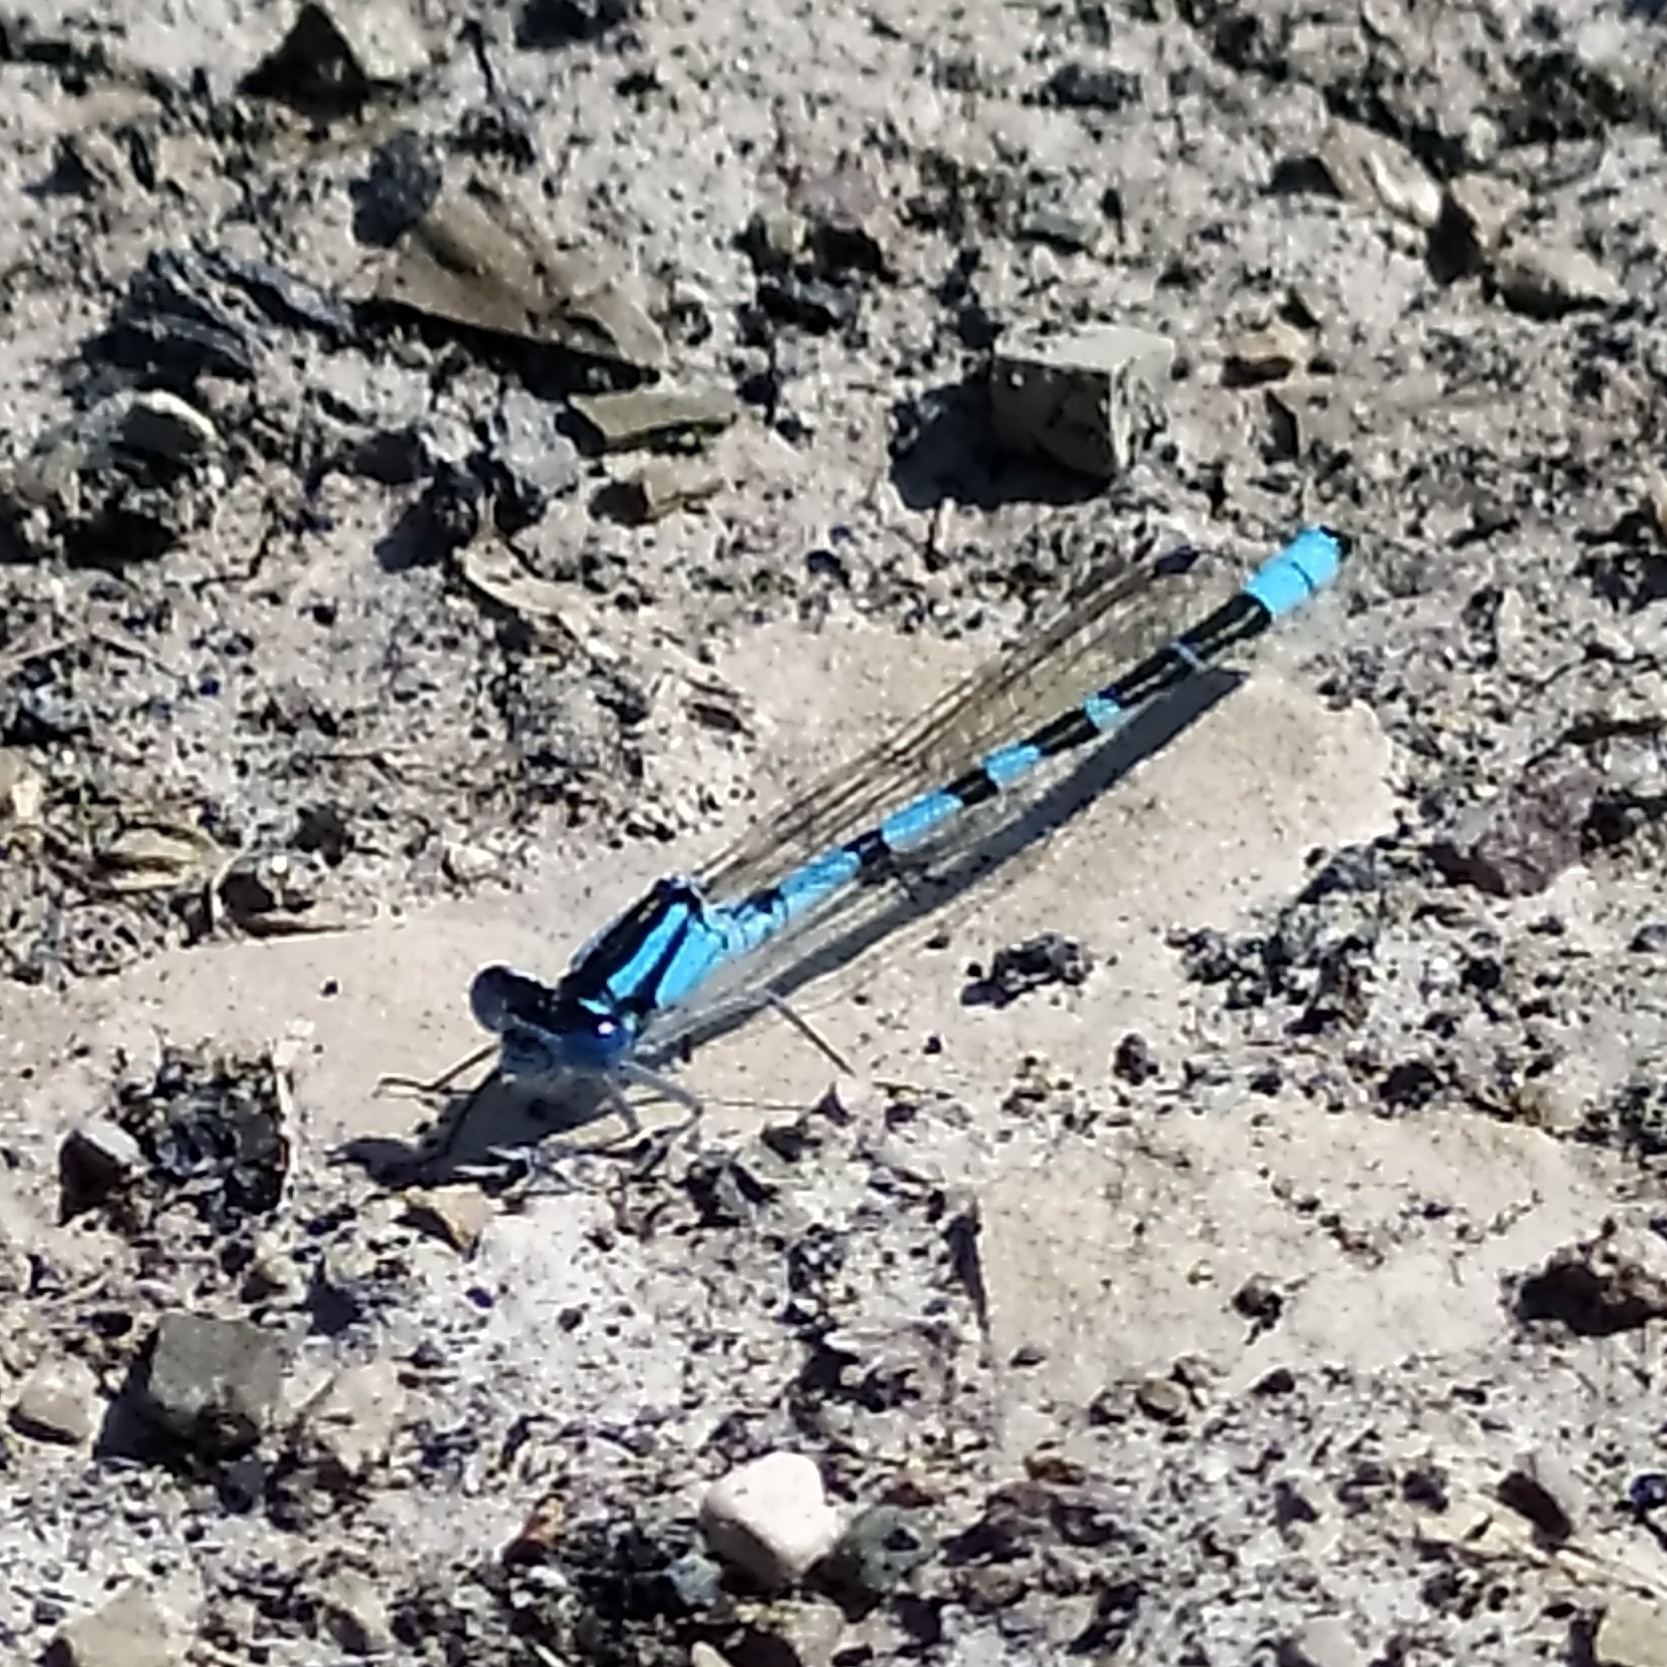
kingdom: Animalia
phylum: Arthropoda
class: Insecta
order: Odonata
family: Coenagrionidae
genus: Enallagma
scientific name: Enallagma cyathigerum
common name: Common blue damselfly
